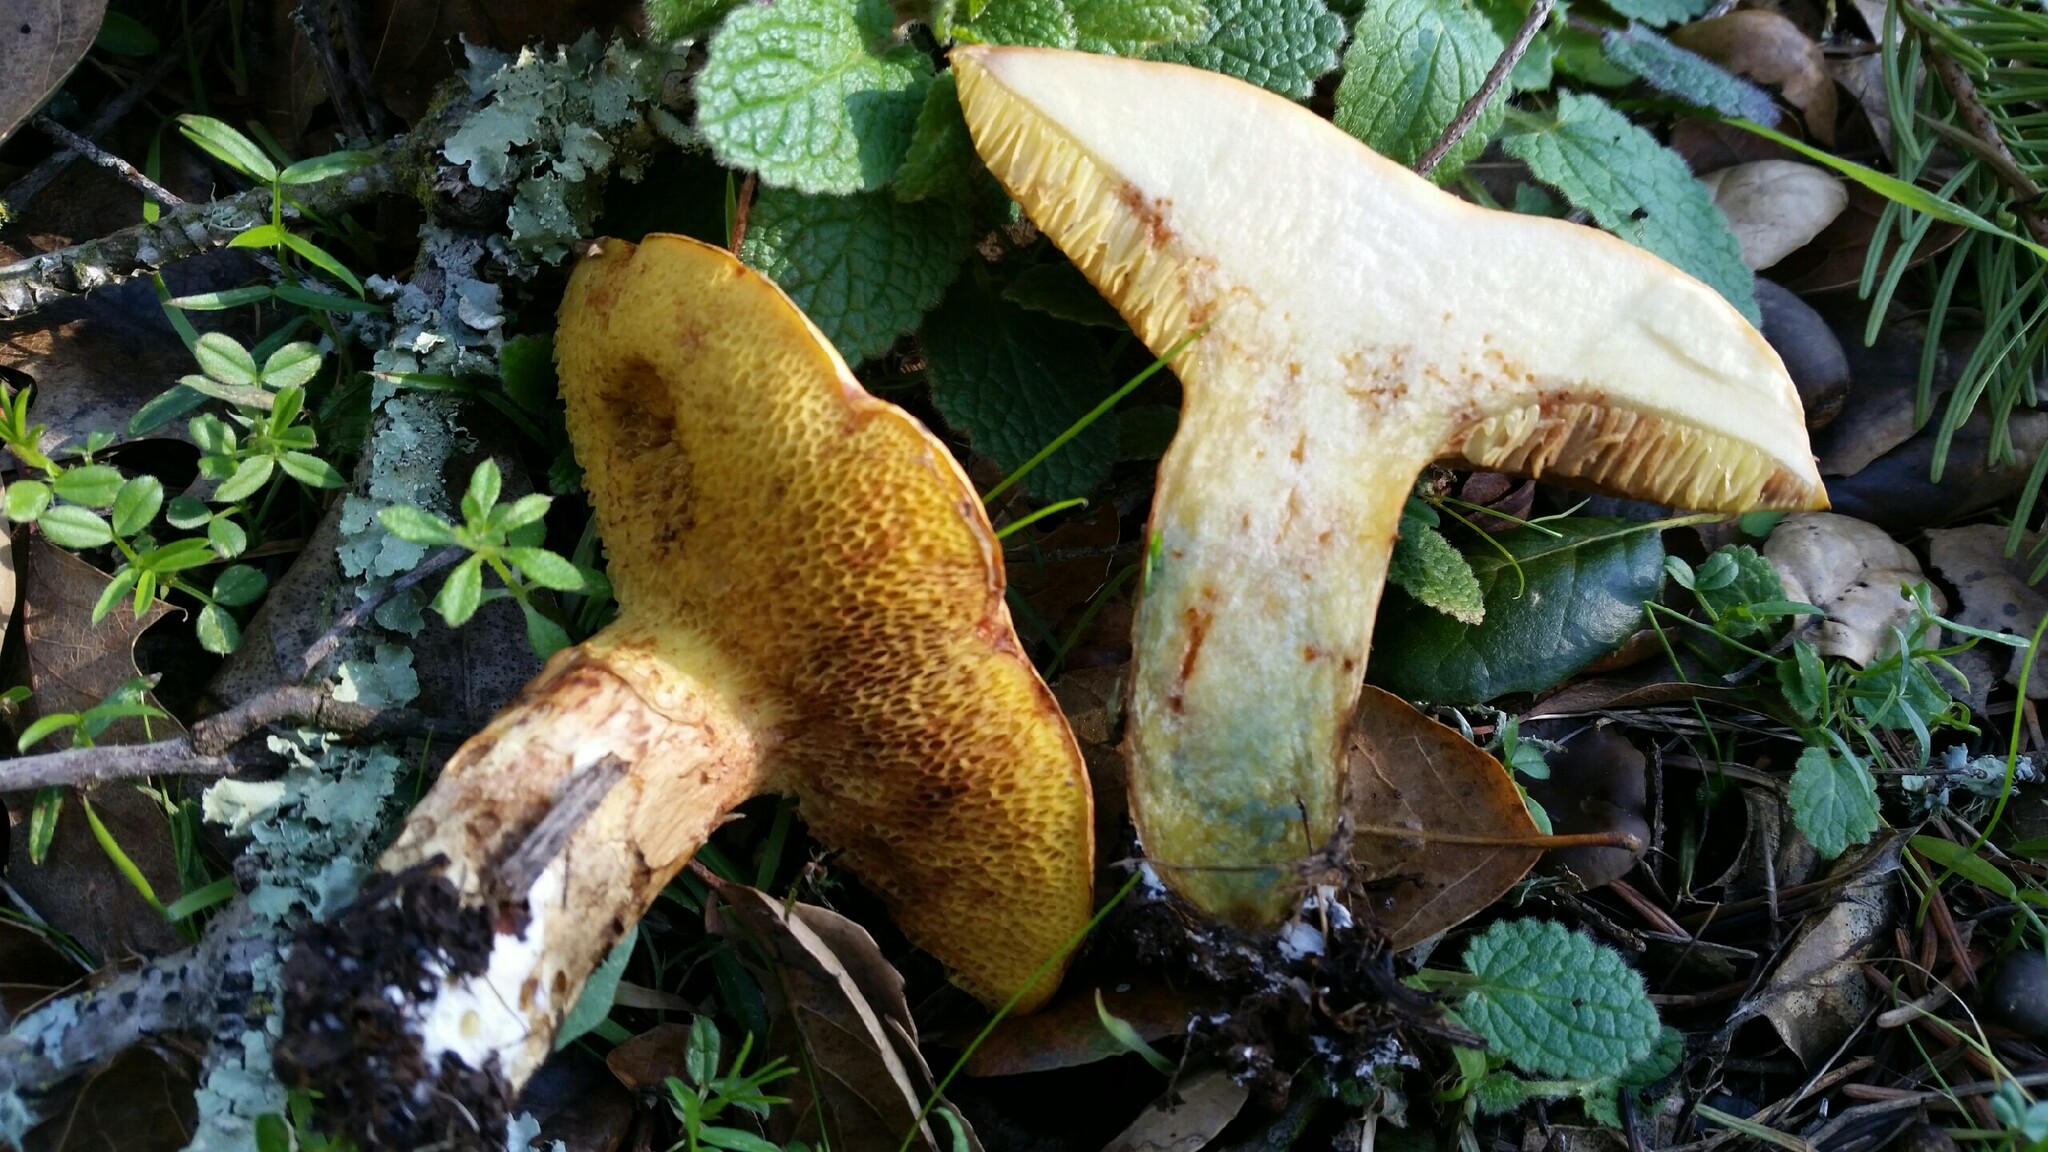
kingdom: Fungi
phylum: Basidiomycota
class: Agaricomycetes
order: Boletales
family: Suillaceae
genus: Suillus
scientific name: Suillus caerulescens
